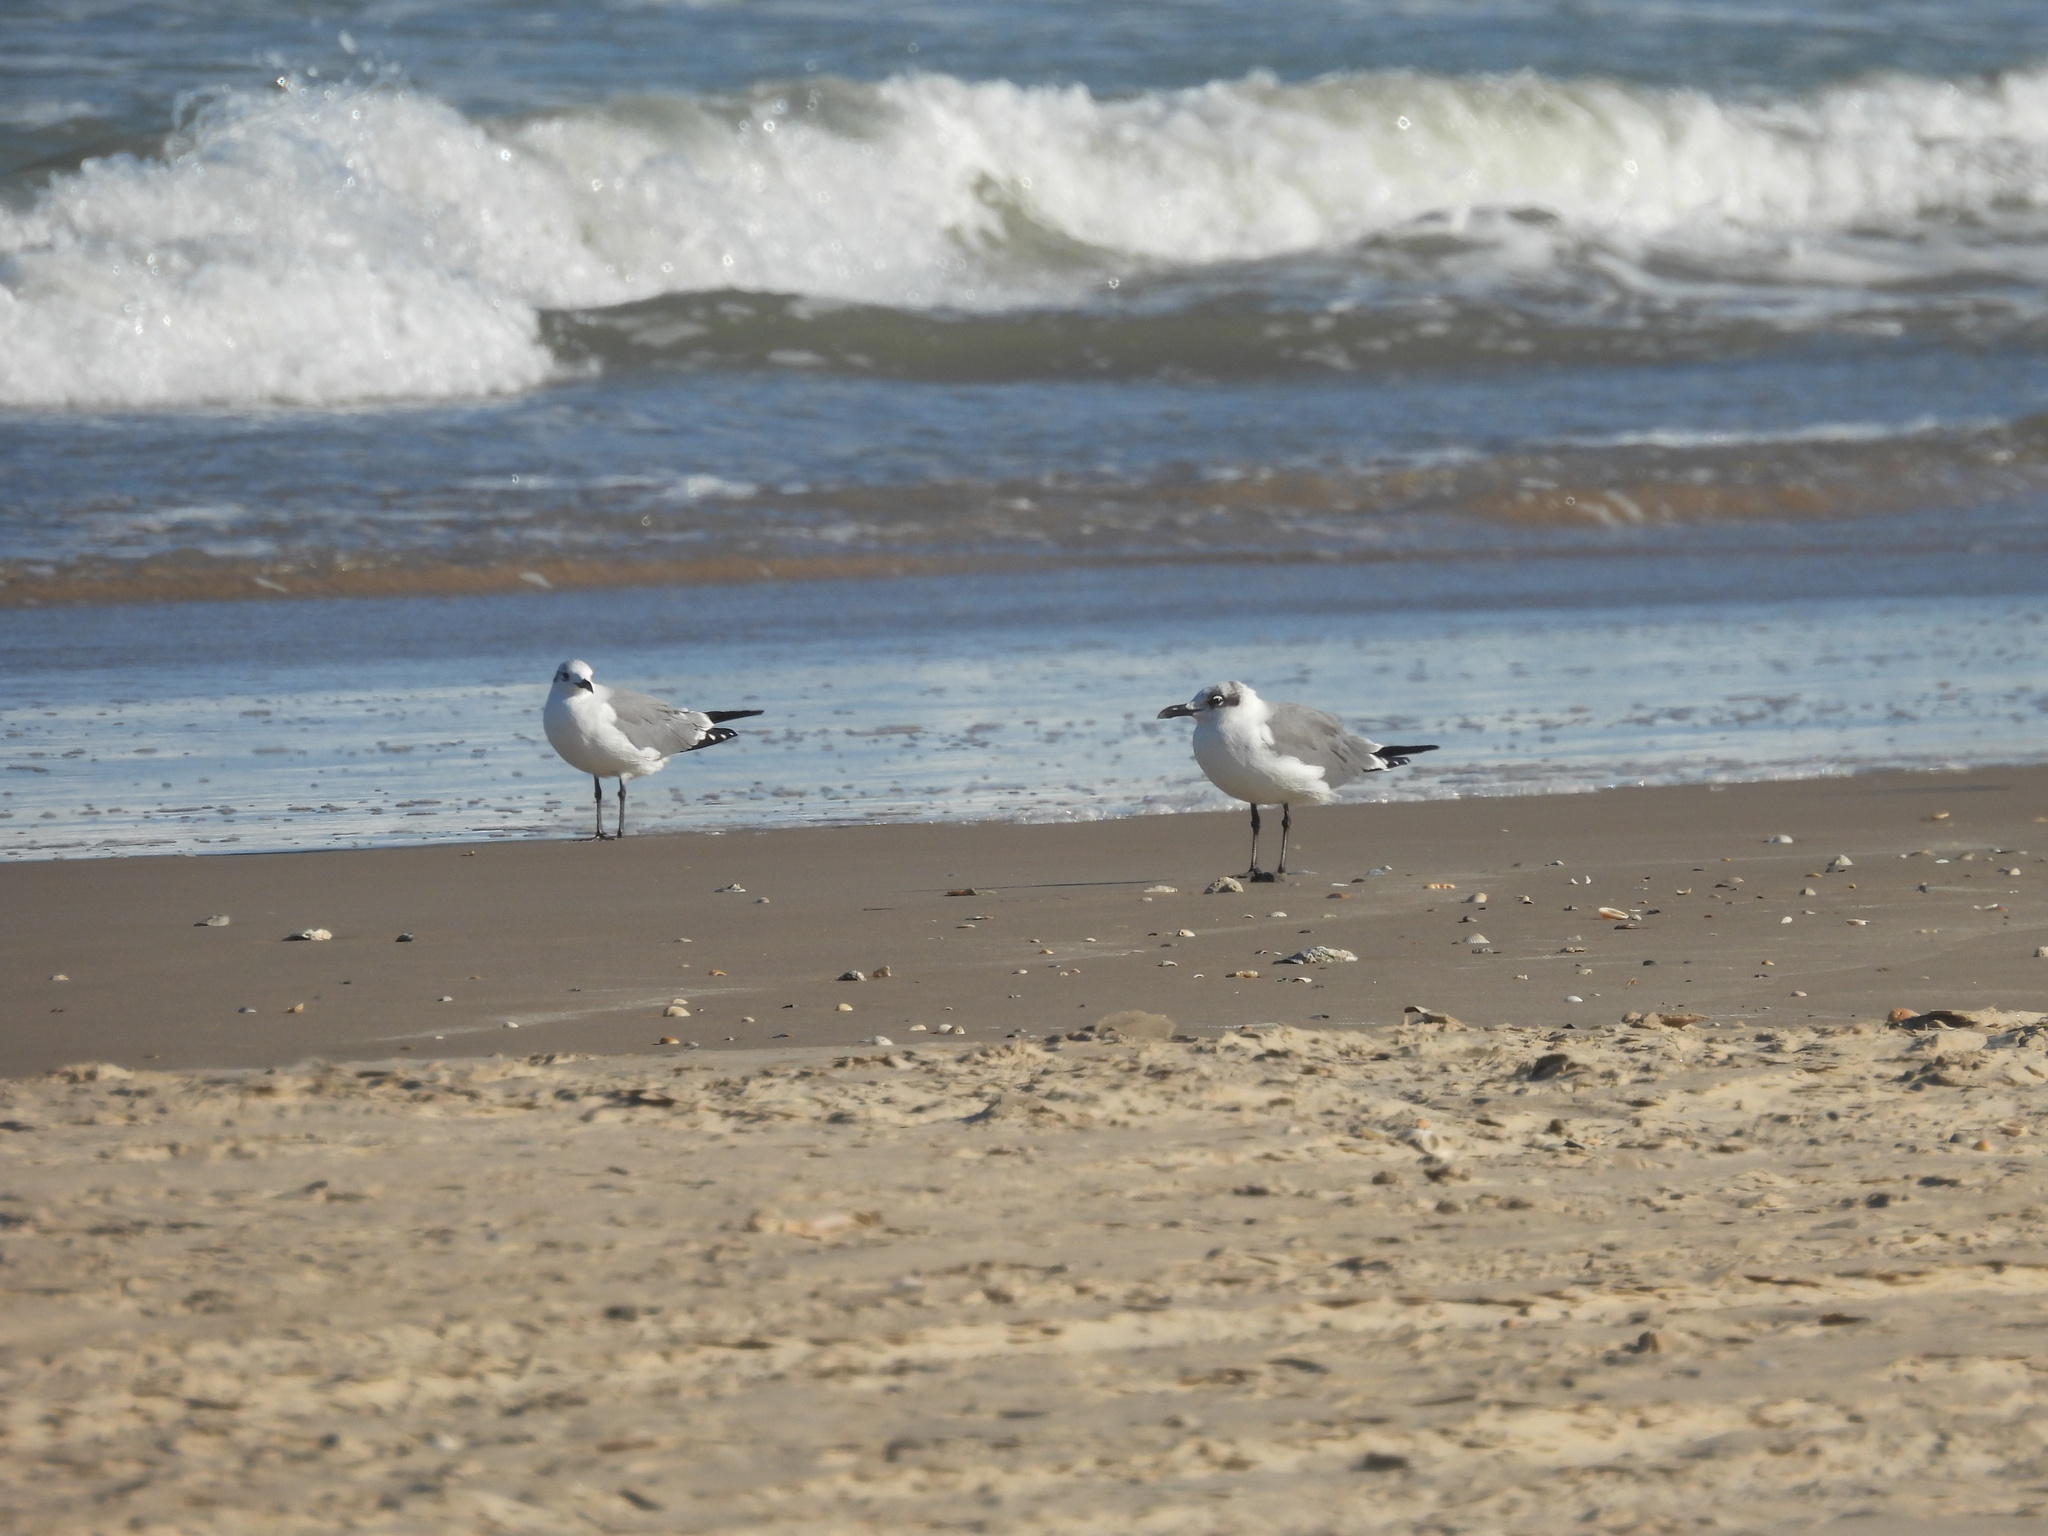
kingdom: Animalia
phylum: Chordata
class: Aves
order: Charadriiformes
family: Laridae
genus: Leucophaeus
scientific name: Leucophaeus atricilla
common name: Laughing gull
